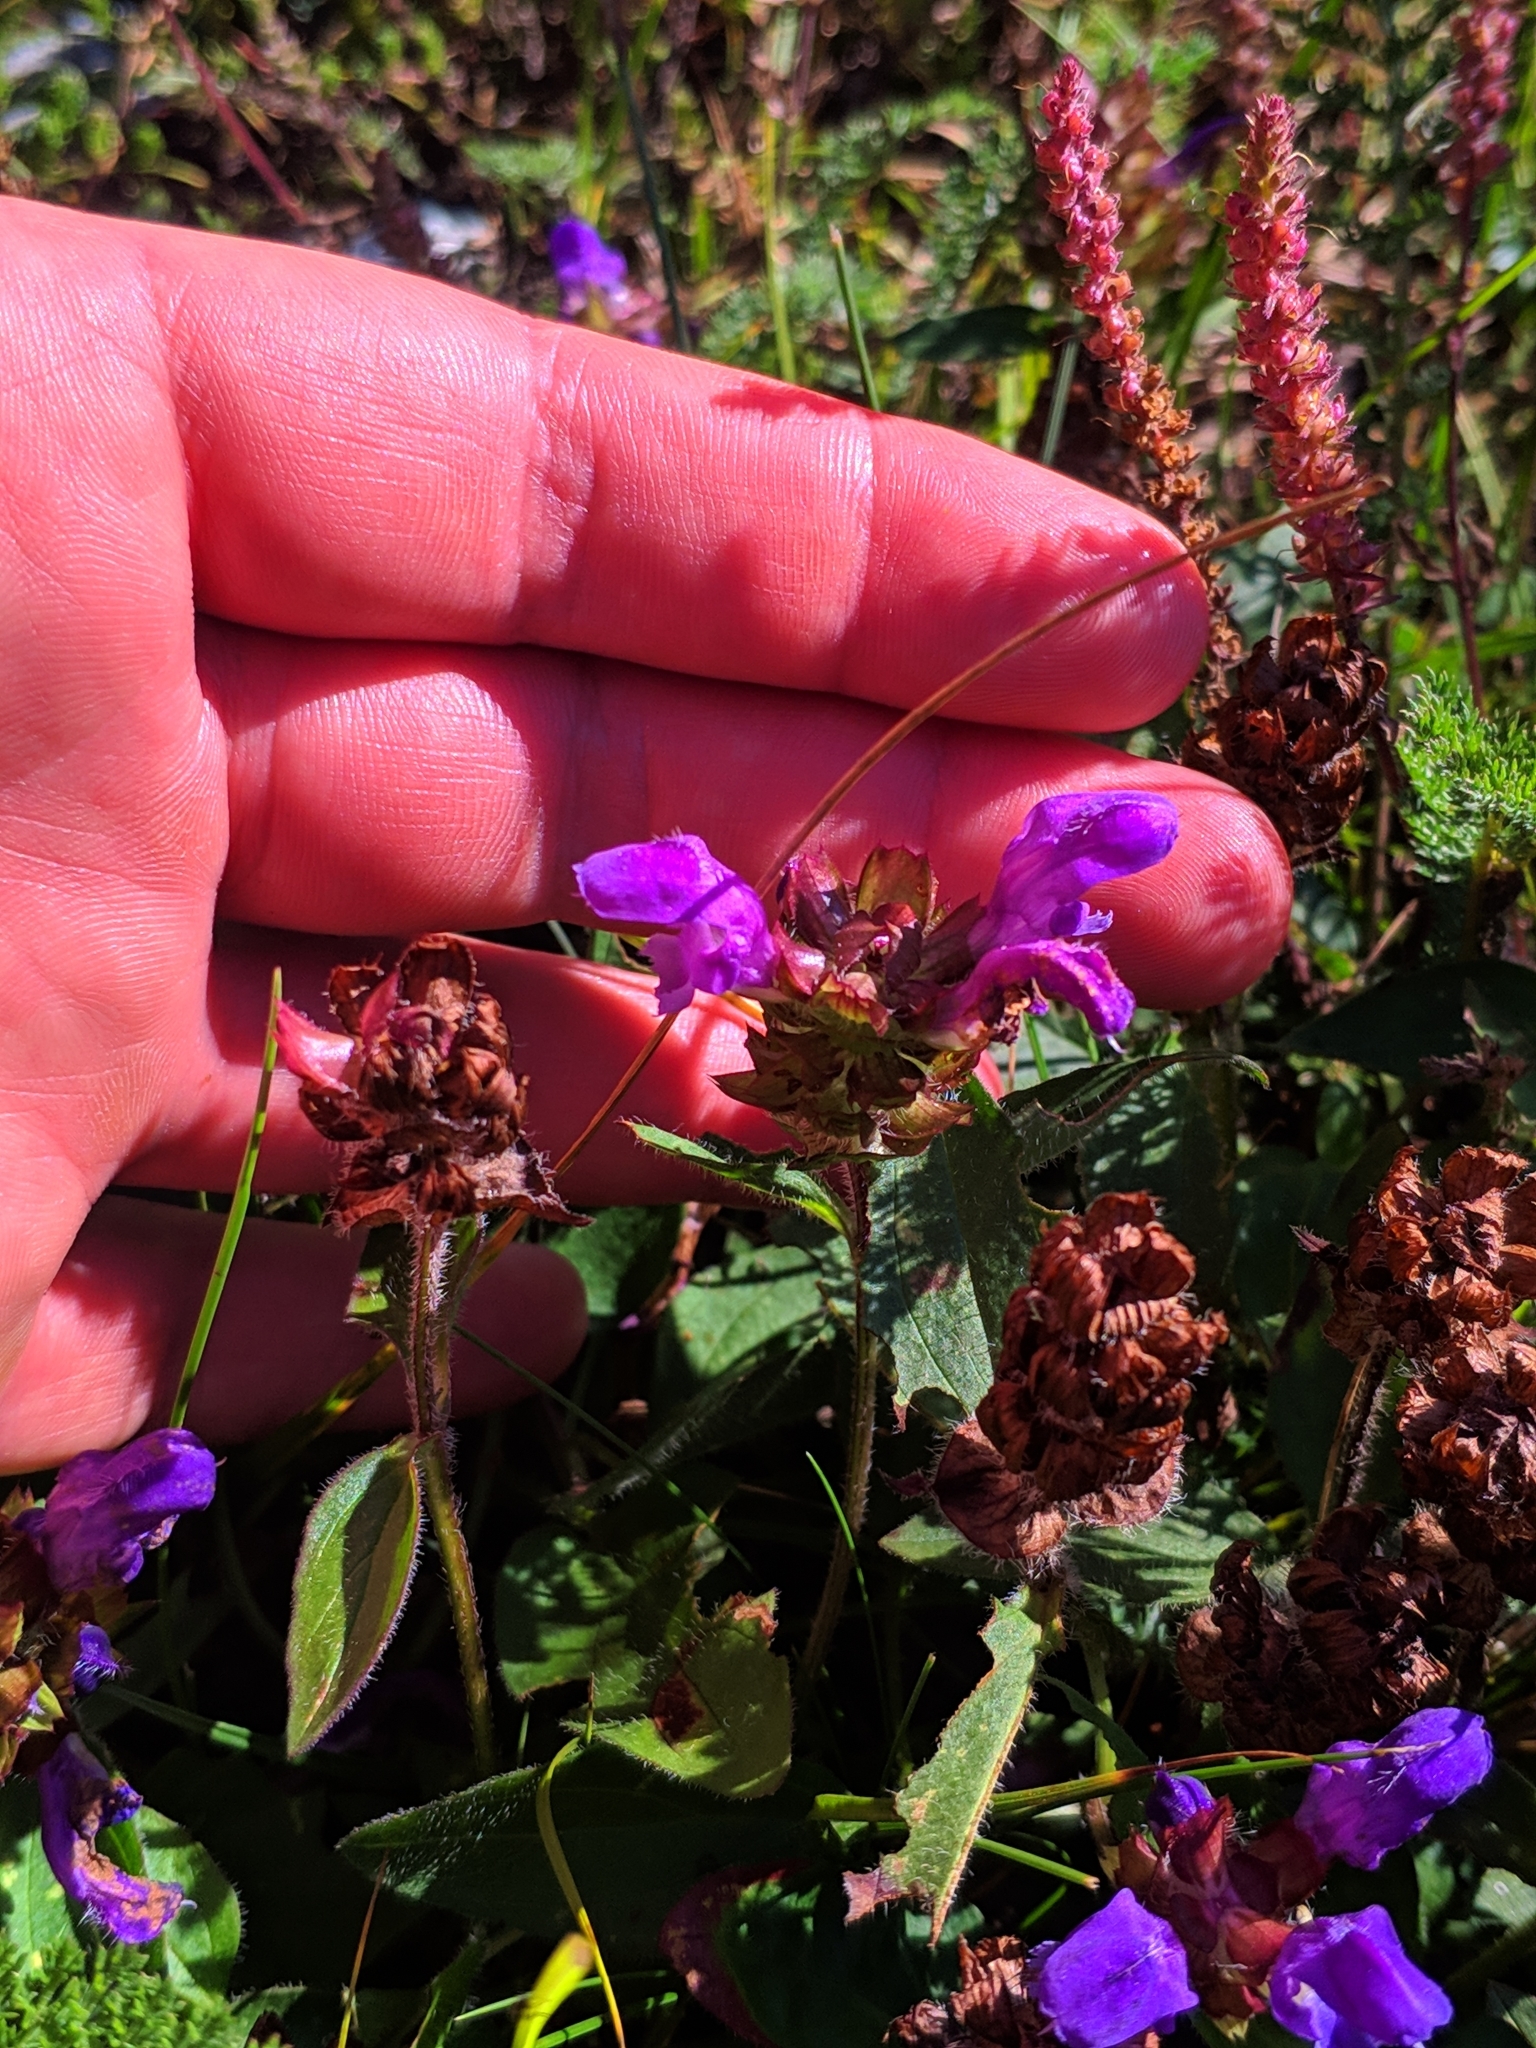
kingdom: Plantae
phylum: Tracheophyta
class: Magnoliopsida
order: Lamiales
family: Lamiaceae
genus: Prunella
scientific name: Prunella grandiflora
